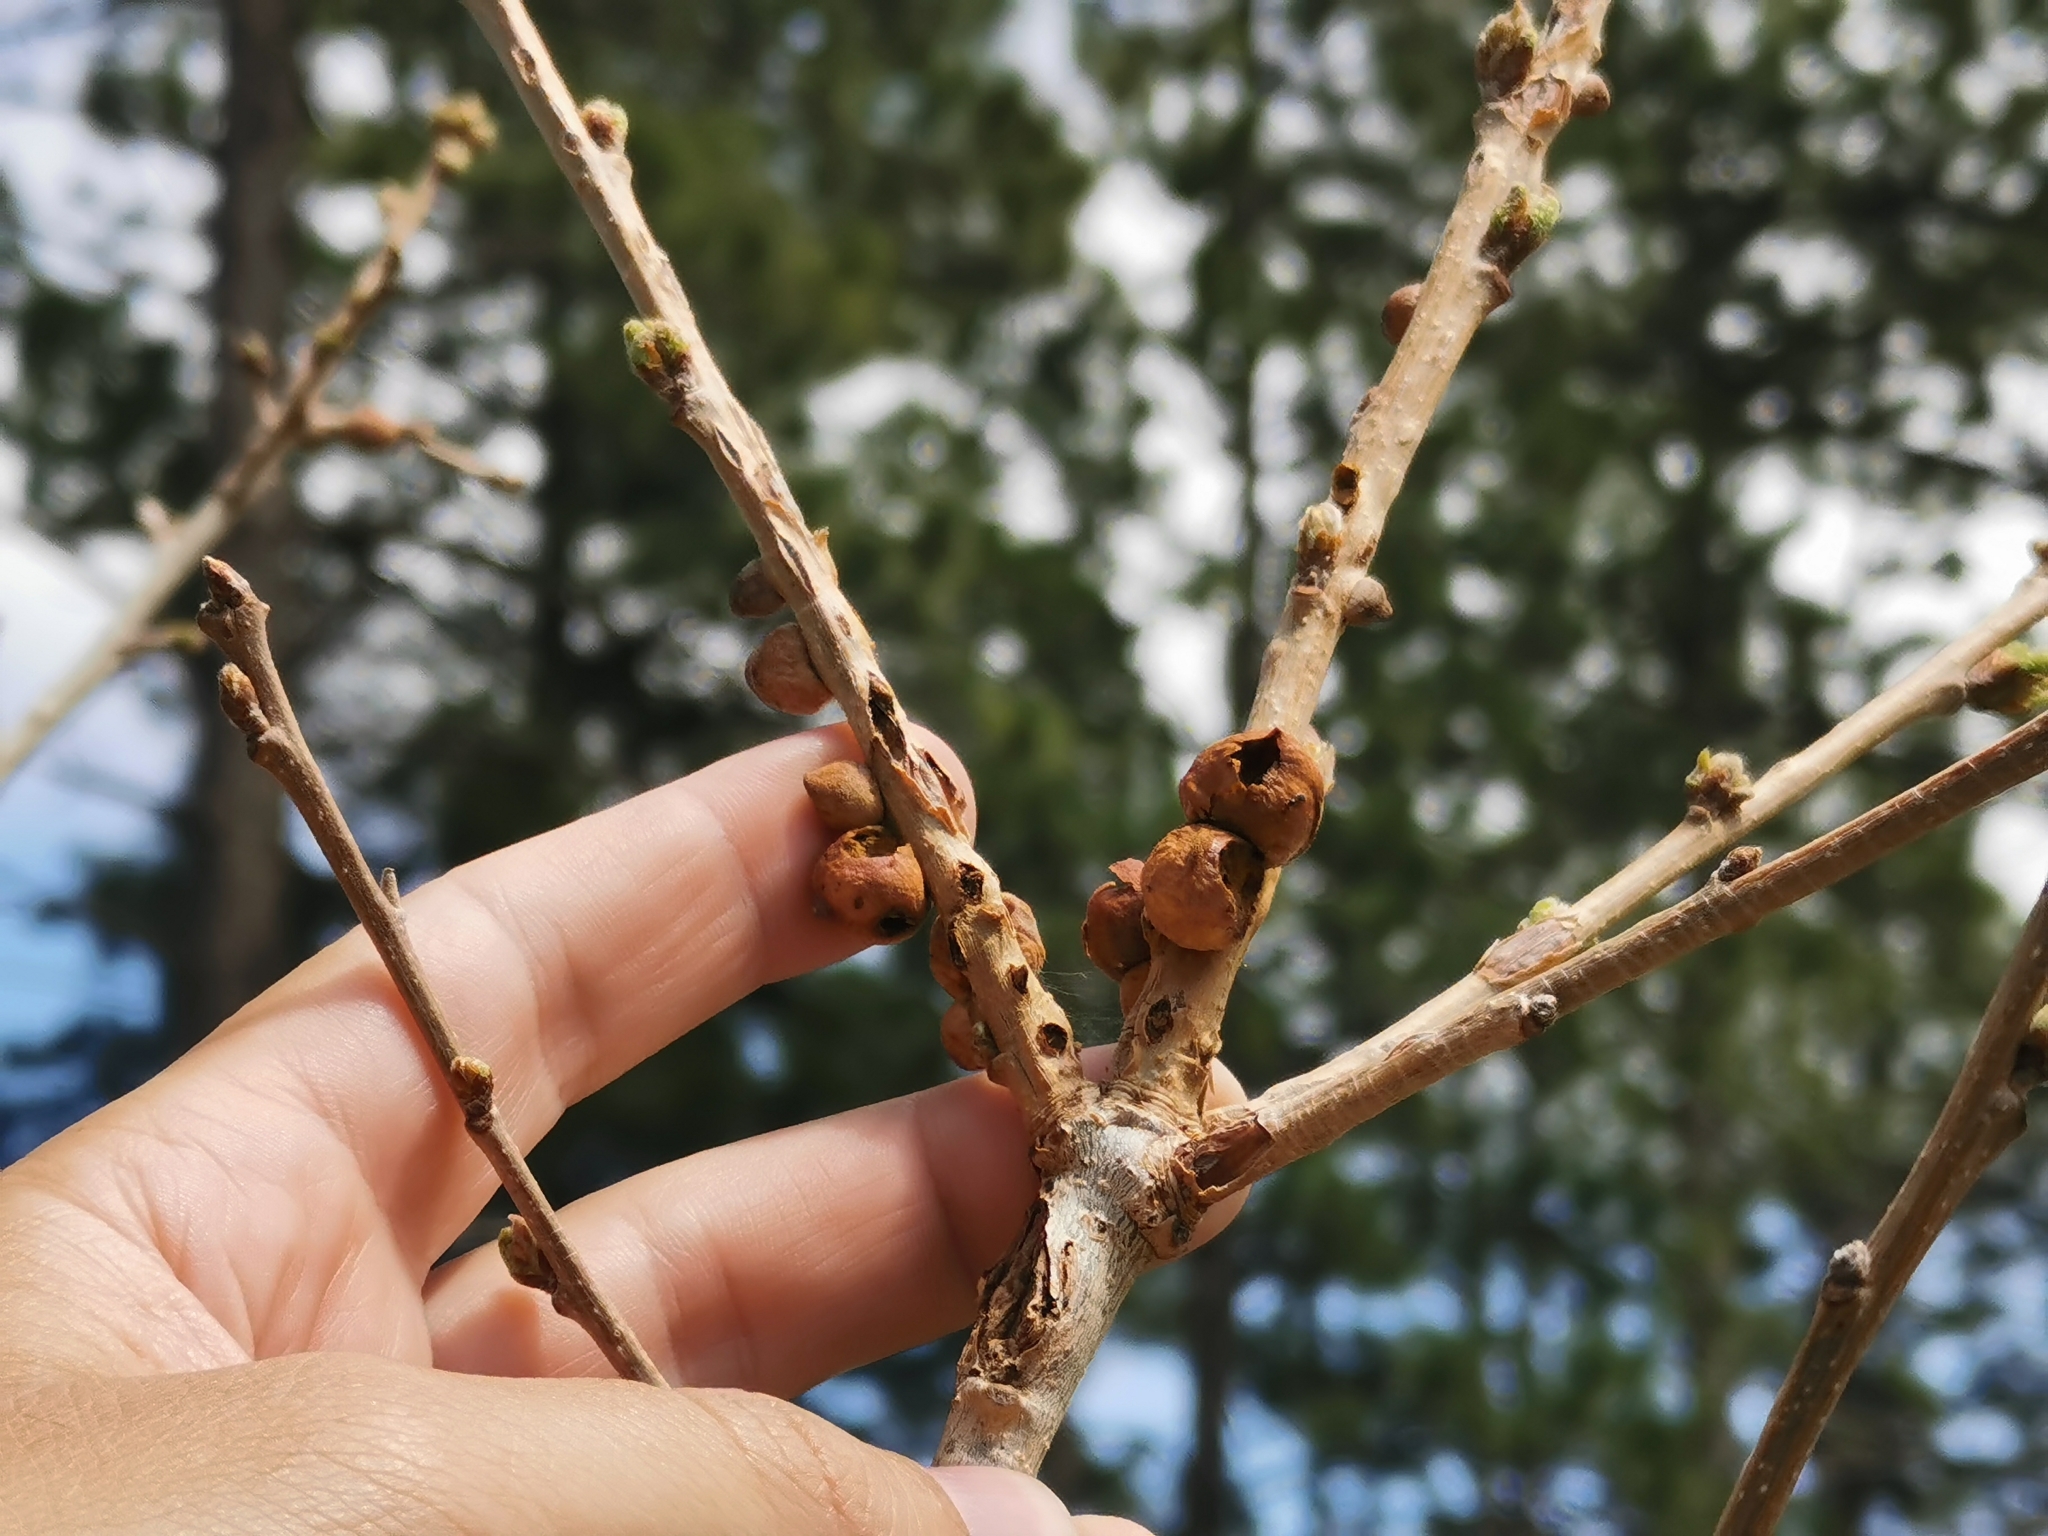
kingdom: Animalia
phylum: Arthropoda
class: Insecta
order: Hymenoptera
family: Cynipidae
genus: Disholcaspis
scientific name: Disholcaspis
